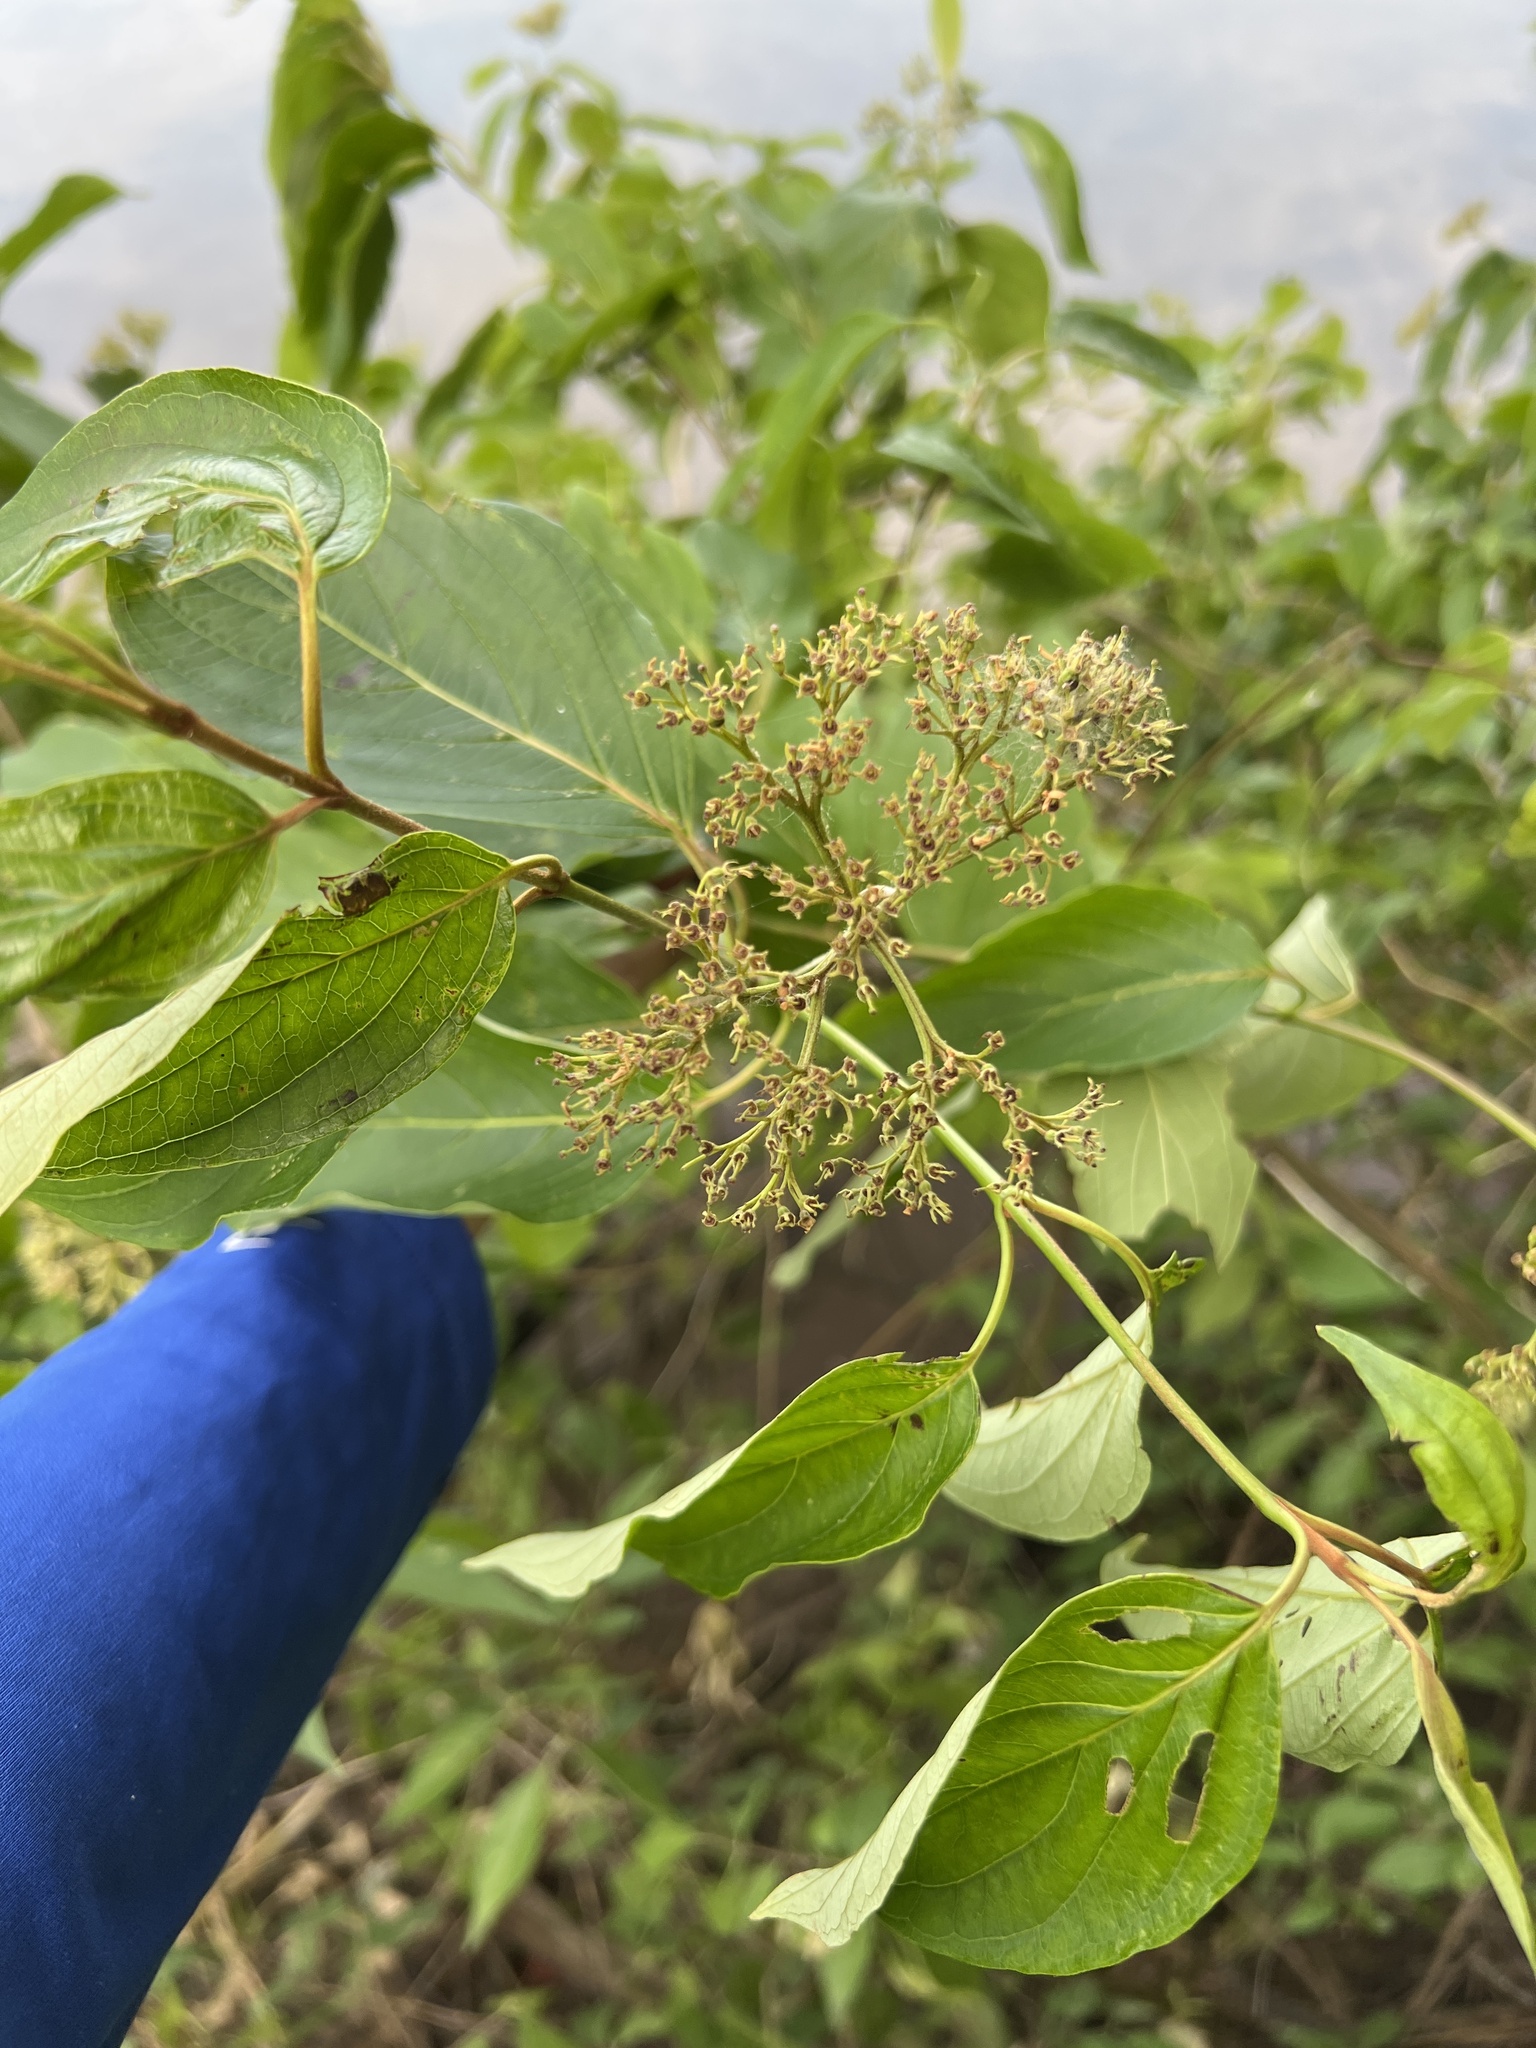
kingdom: Plantae
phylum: Tracheophyta
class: Magnoliopsida
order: Cornales
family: Cornaceae
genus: Cornus
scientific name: Cornus amomum
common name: Silky dogwood
